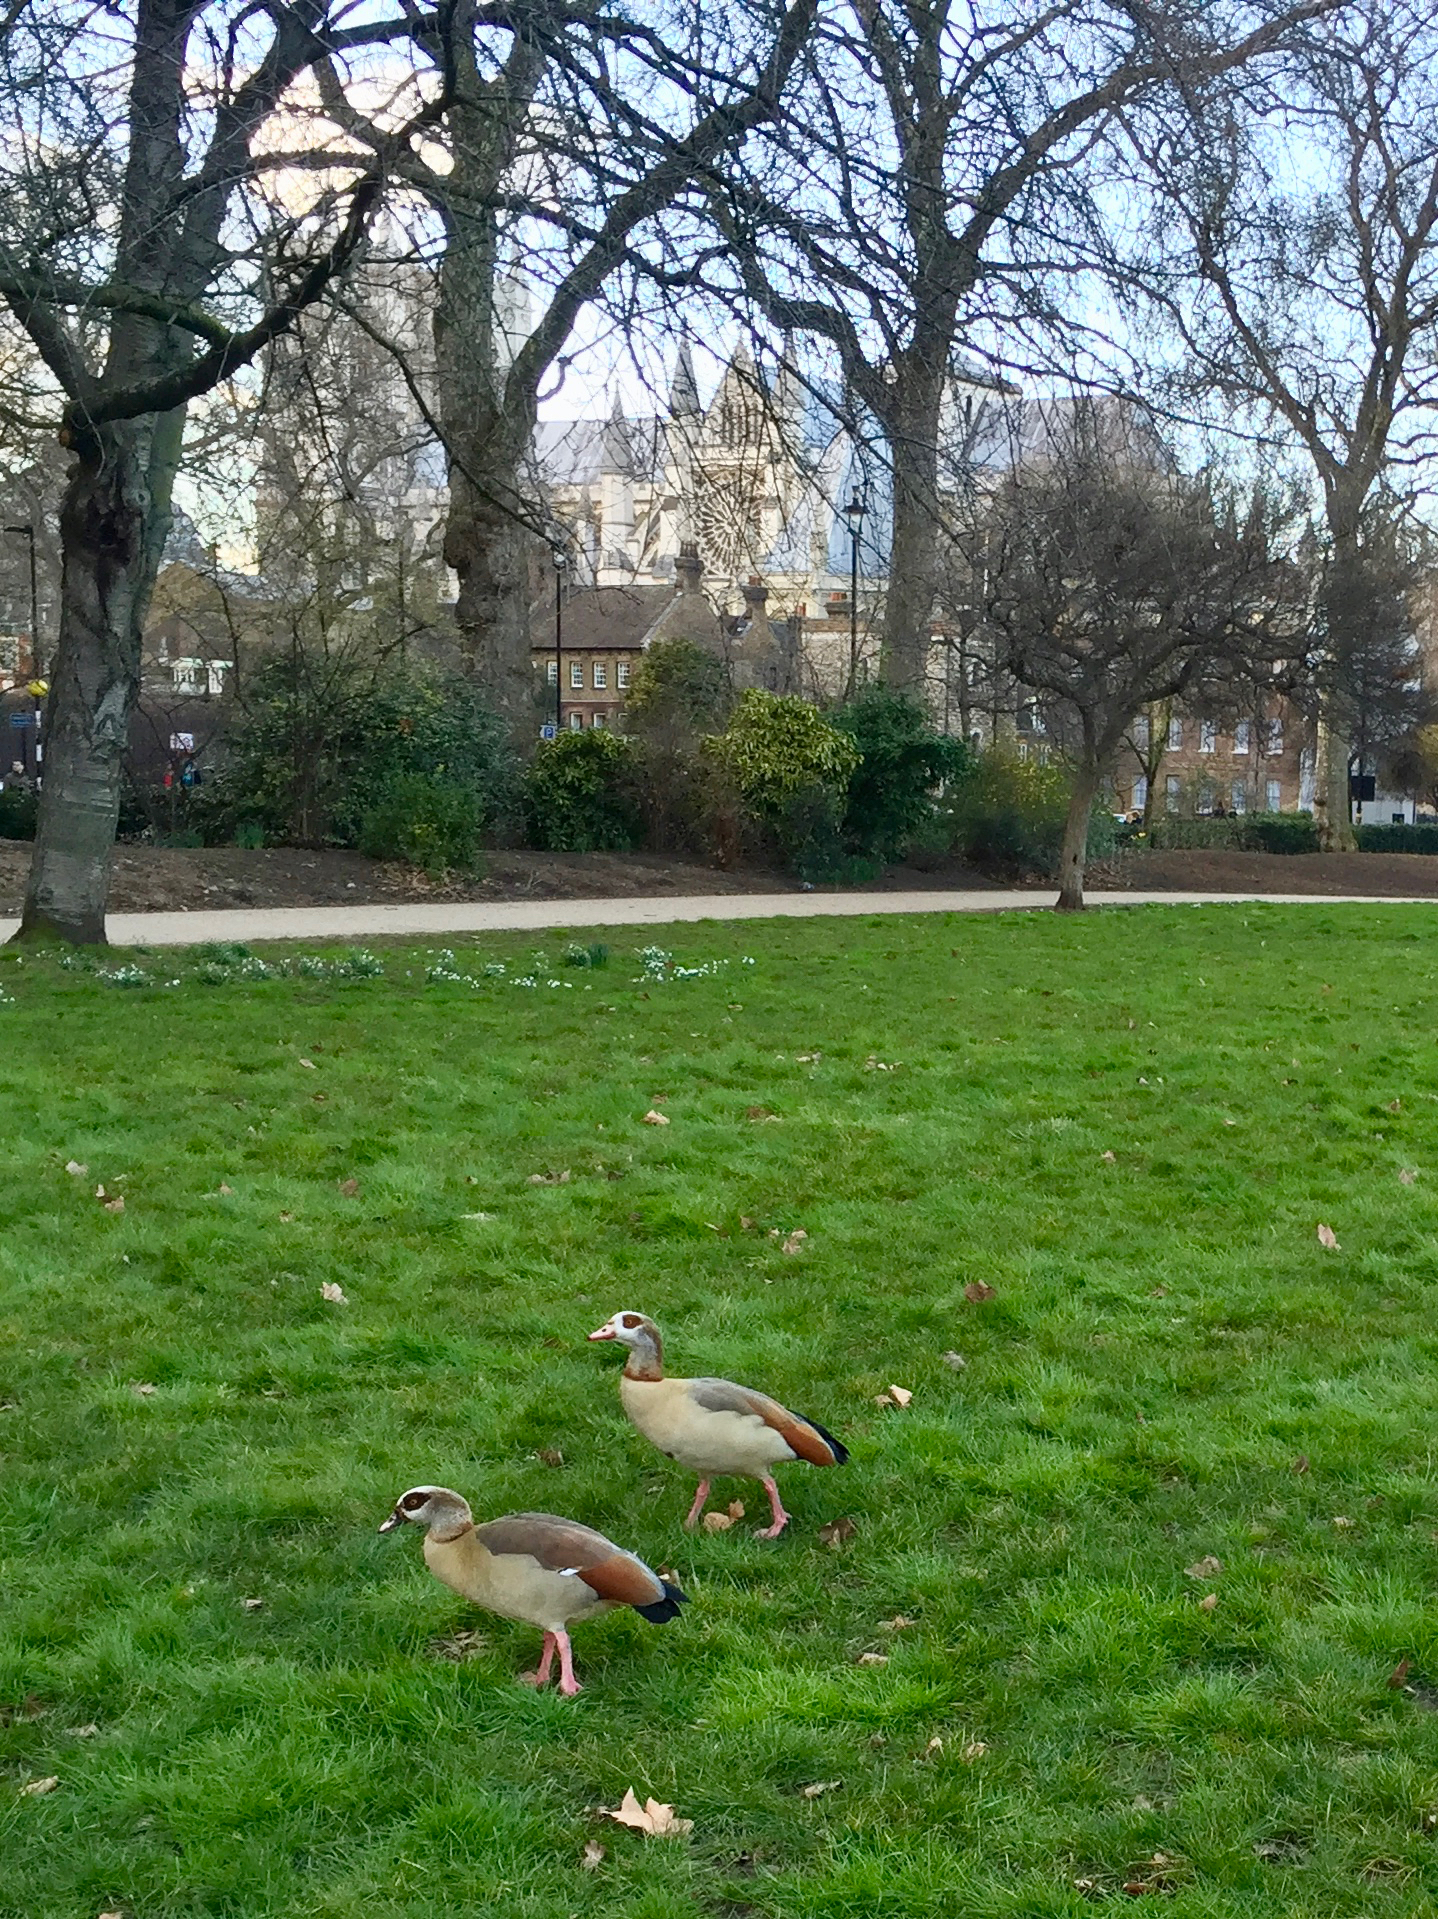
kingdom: Animalia
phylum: Chordata
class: Aves
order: Anseriformes
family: Anatidae
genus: Alopochen
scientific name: Alopochen aegyptiaca
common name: Egyptian goose
